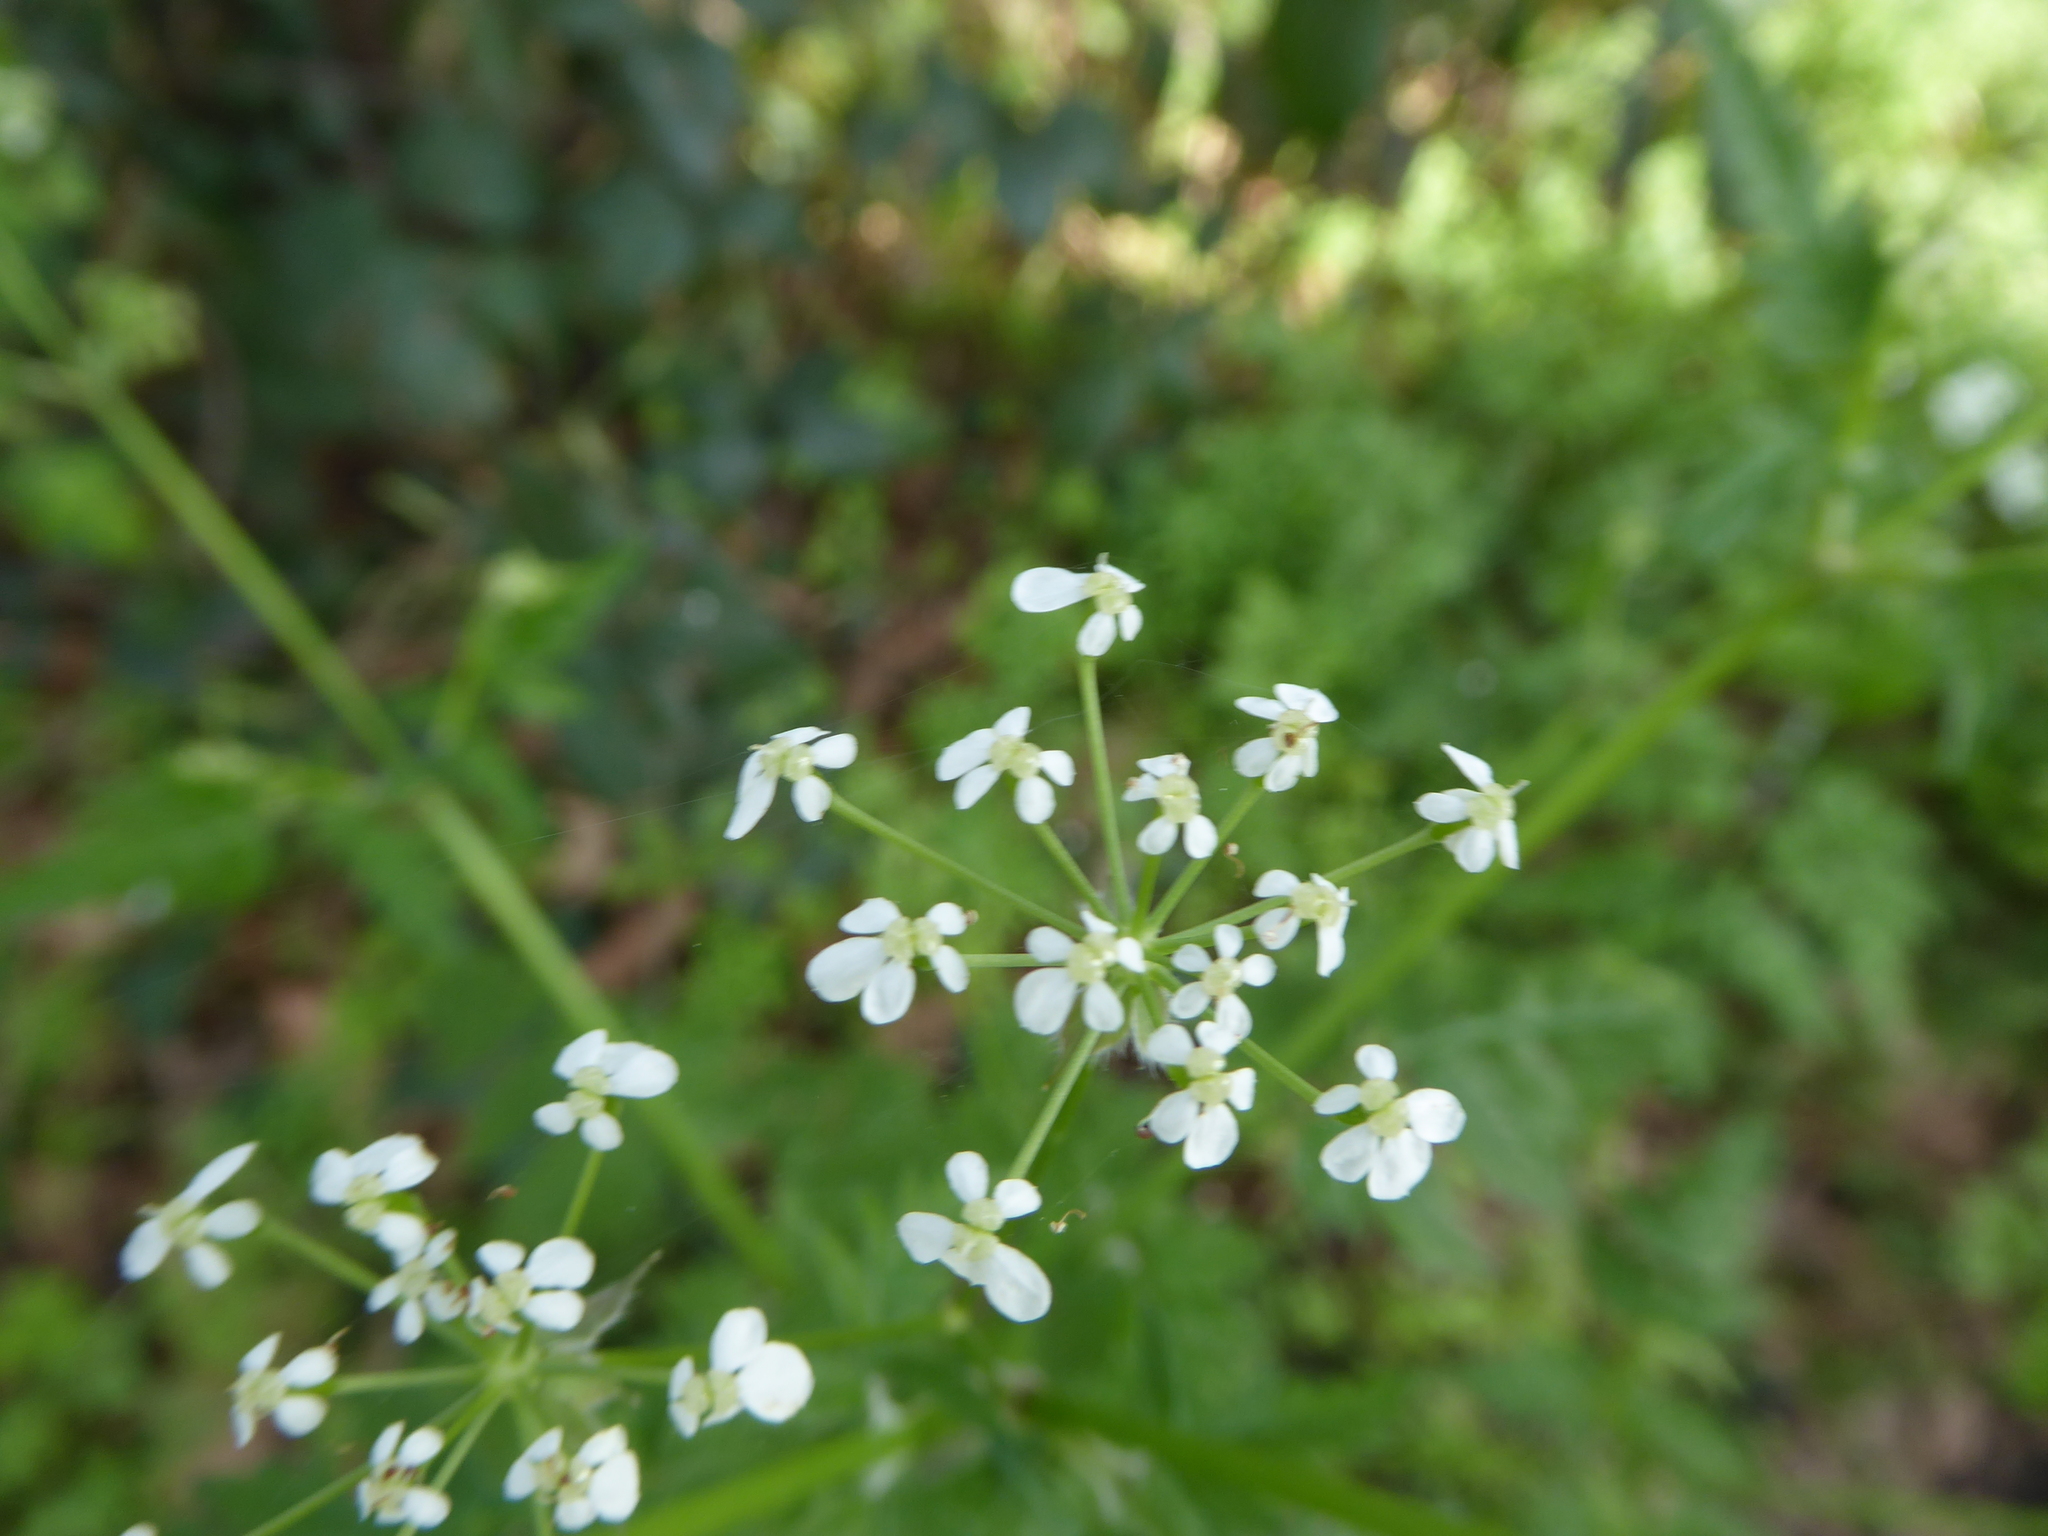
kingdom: Plantae
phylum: Tracheophyta
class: Magnoliopsida
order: Apiales
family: Apiaceae
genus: Anthriscus
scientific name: Anthriscus sylvestris
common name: Cow parsley
